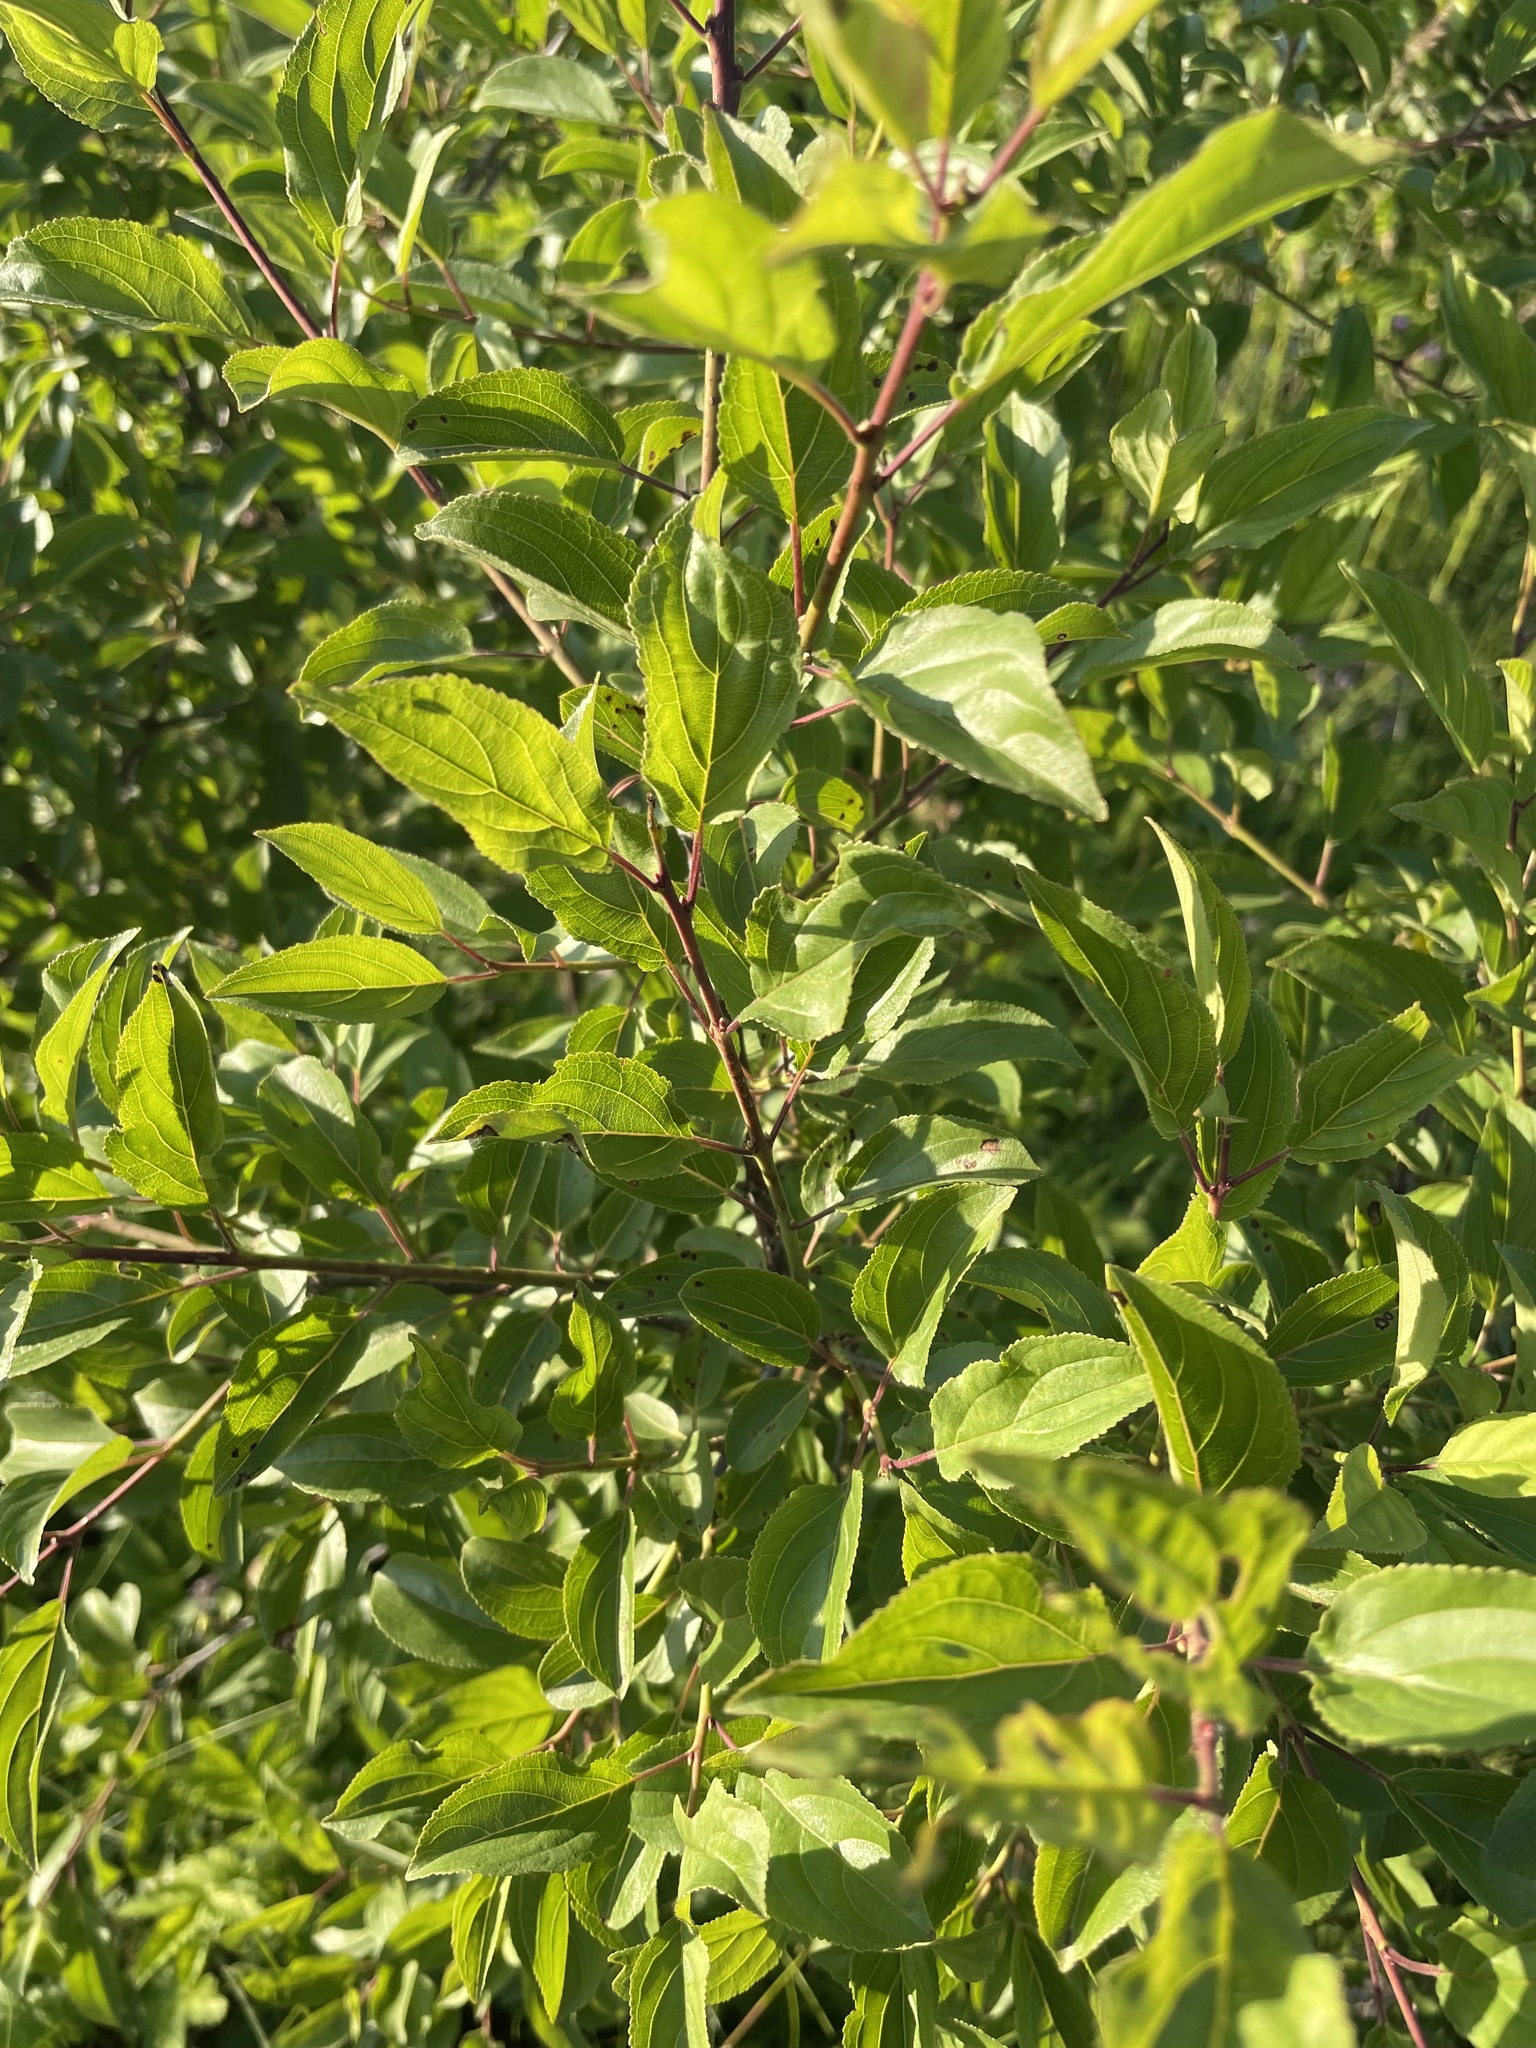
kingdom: Plantae
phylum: Tracheophyta
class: Magnoliopsida
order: Rosales
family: Rhamnaceae
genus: Rhamnus
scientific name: Rhamnus cathartica
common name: Common buckthorn
